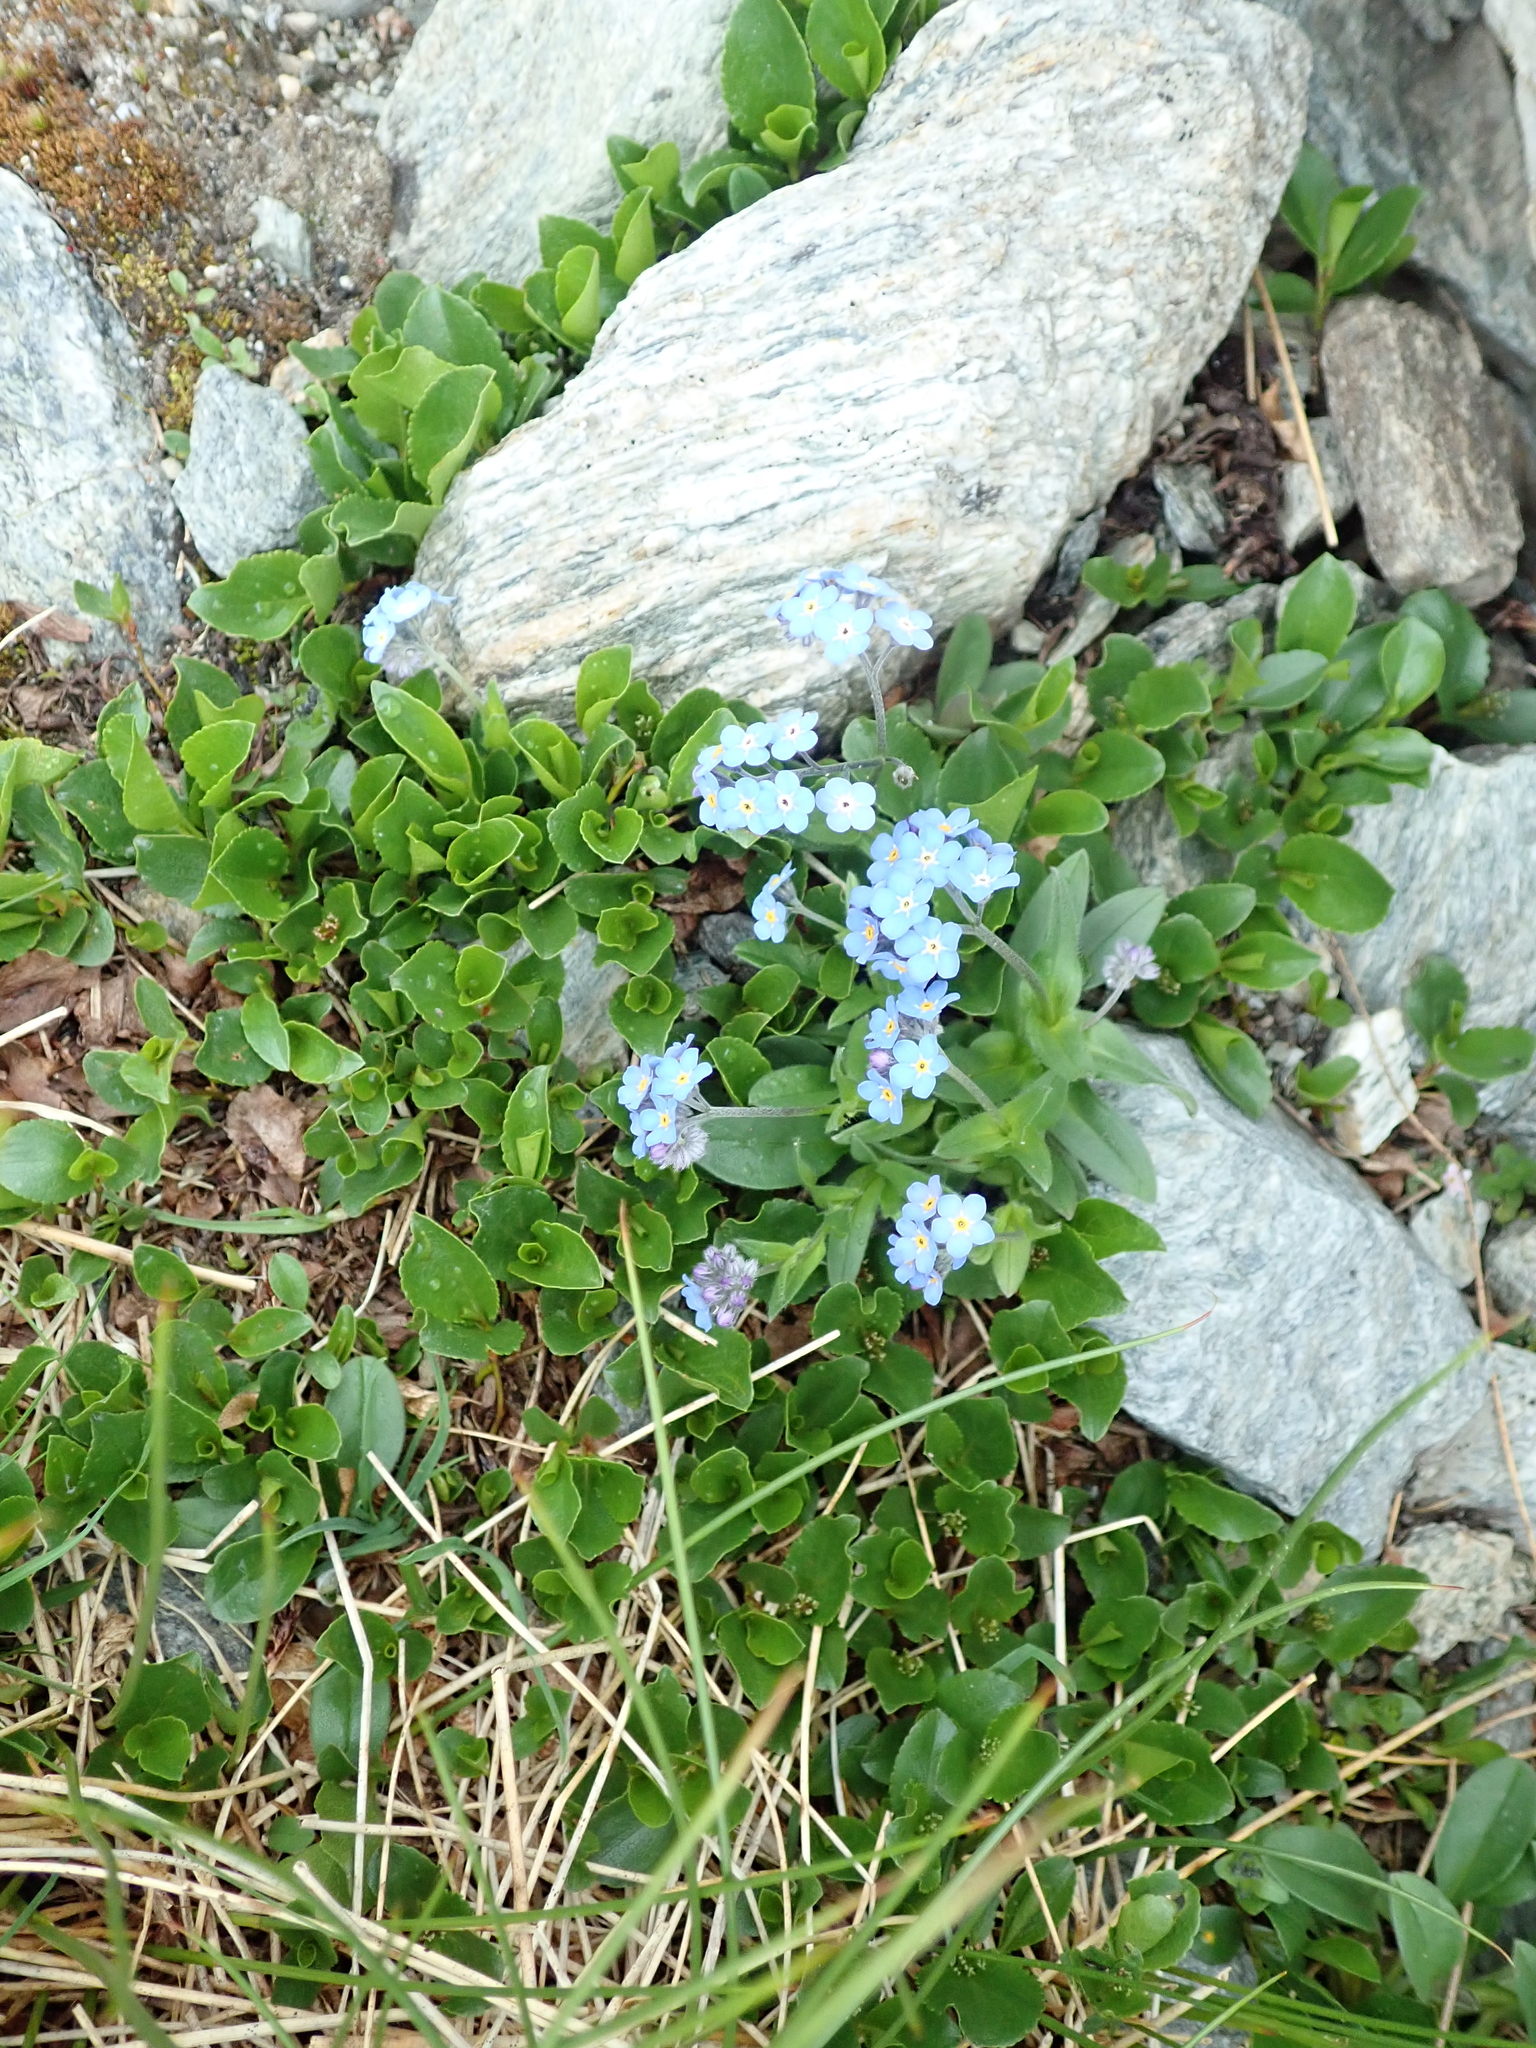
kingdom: Plantae
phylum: Tracheophyta
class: Magnoliopsida
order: Boraginales
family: Boraginaceae
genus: Myosotis
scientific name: Myosotis alpestris
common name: Alpine forget-me-not
